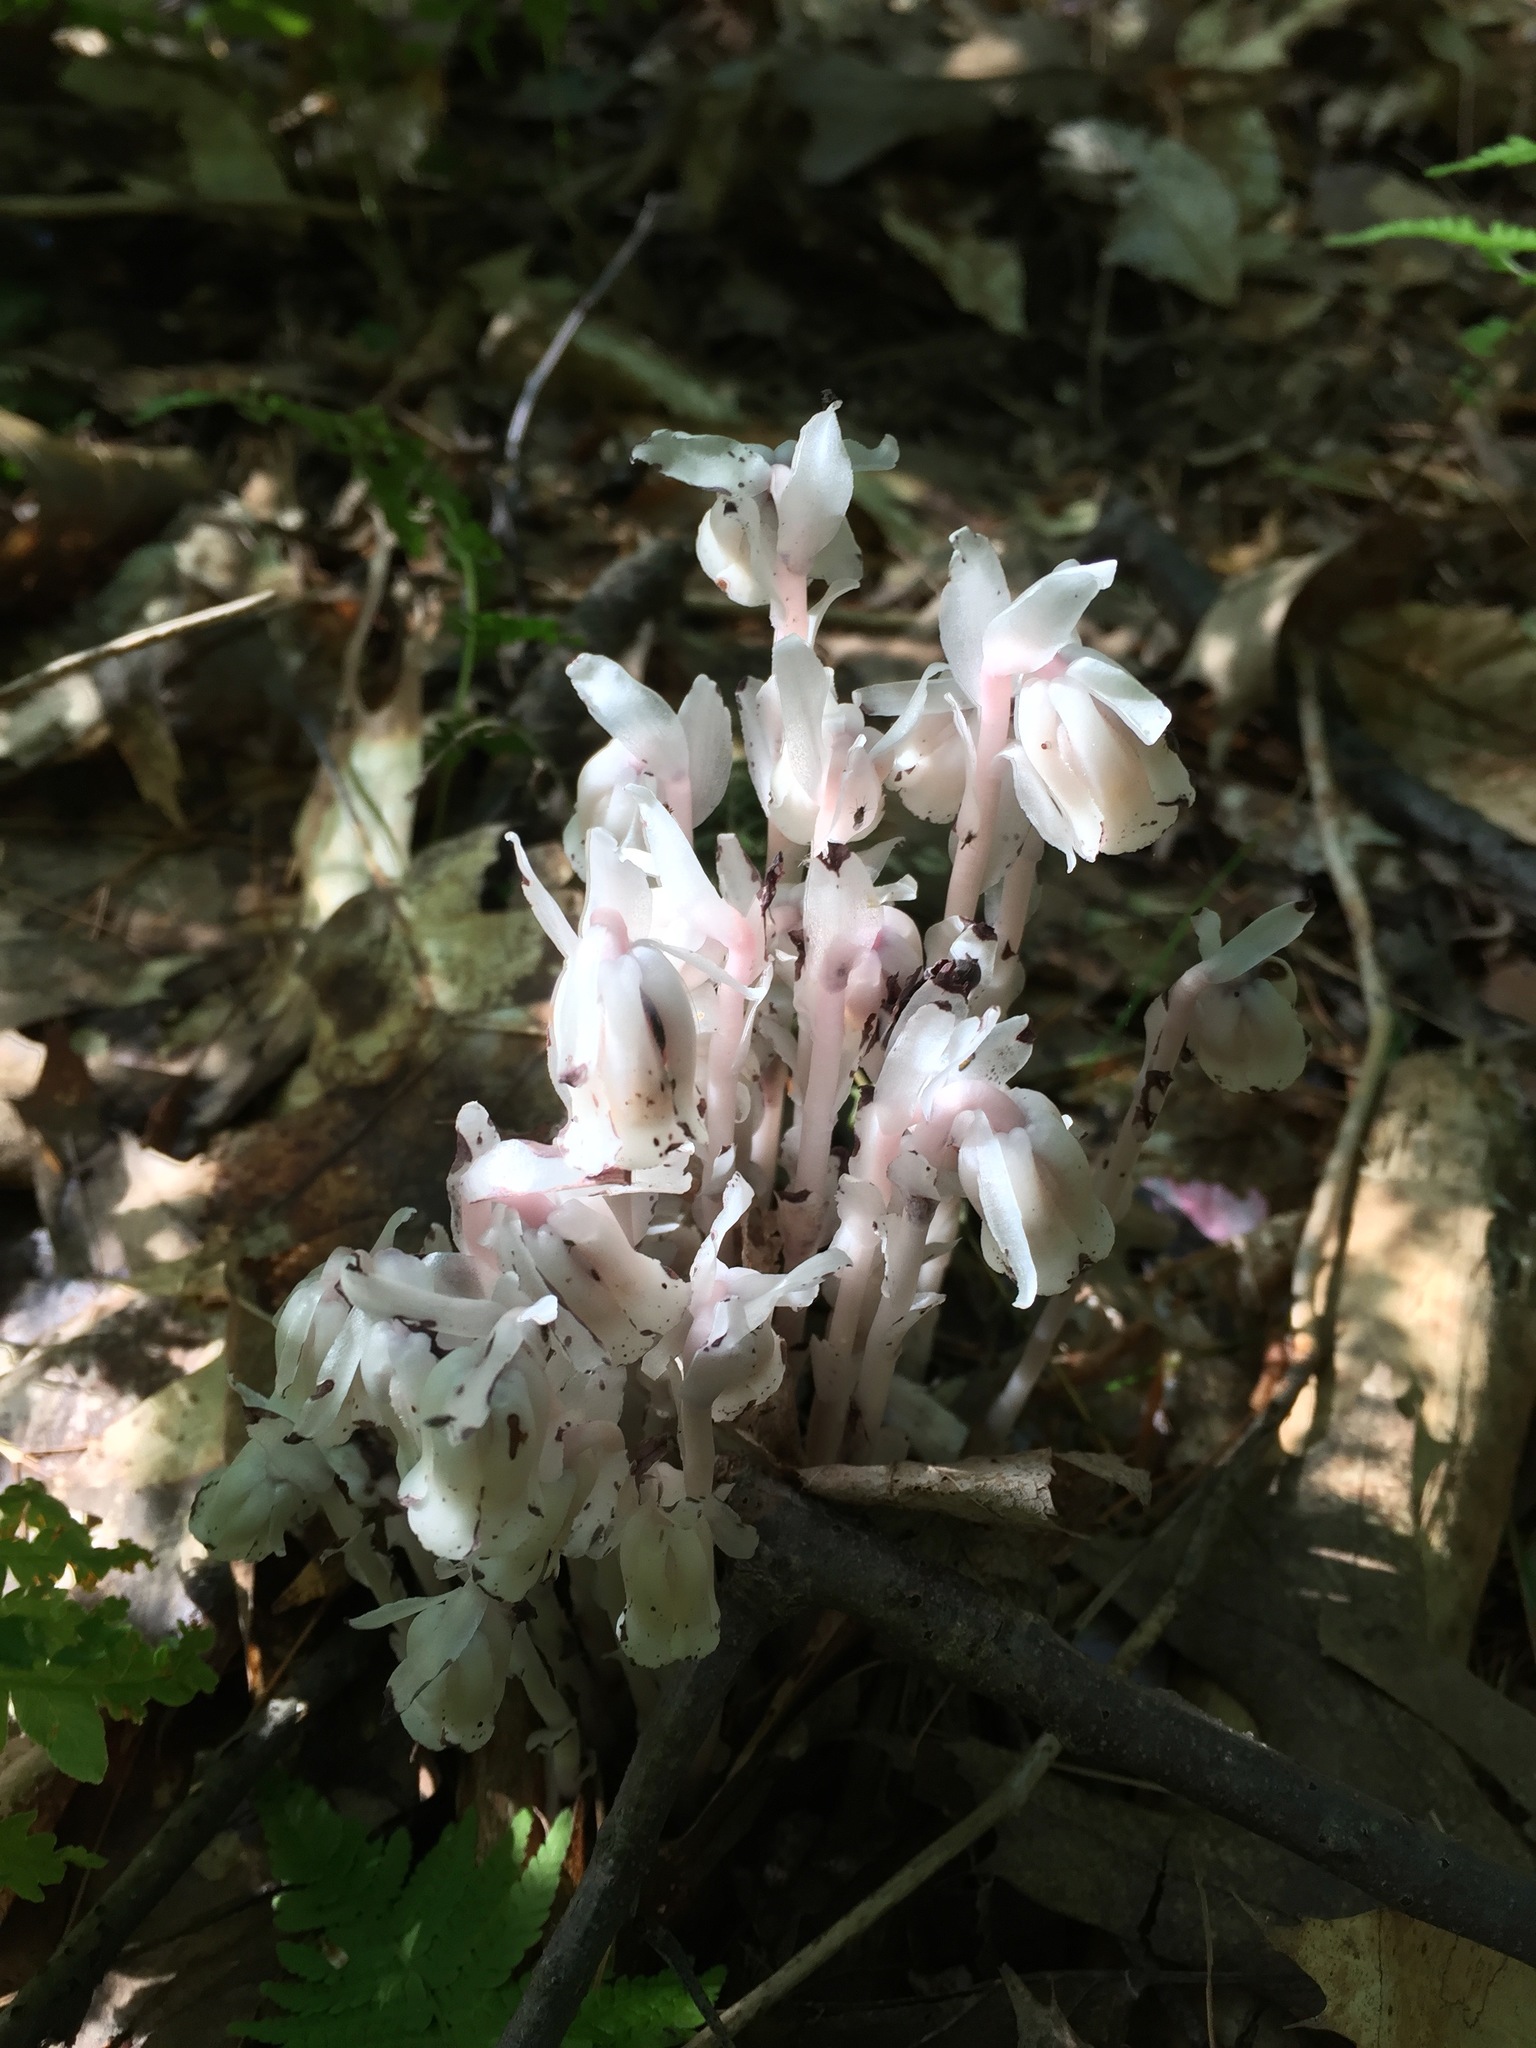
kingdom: Plantae
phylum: Tracheophyta
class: Magnoliopsida
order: Ericales
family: Ericaceae
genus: Monotropa
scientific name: Monotropa uniflora
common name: Convulsion root
